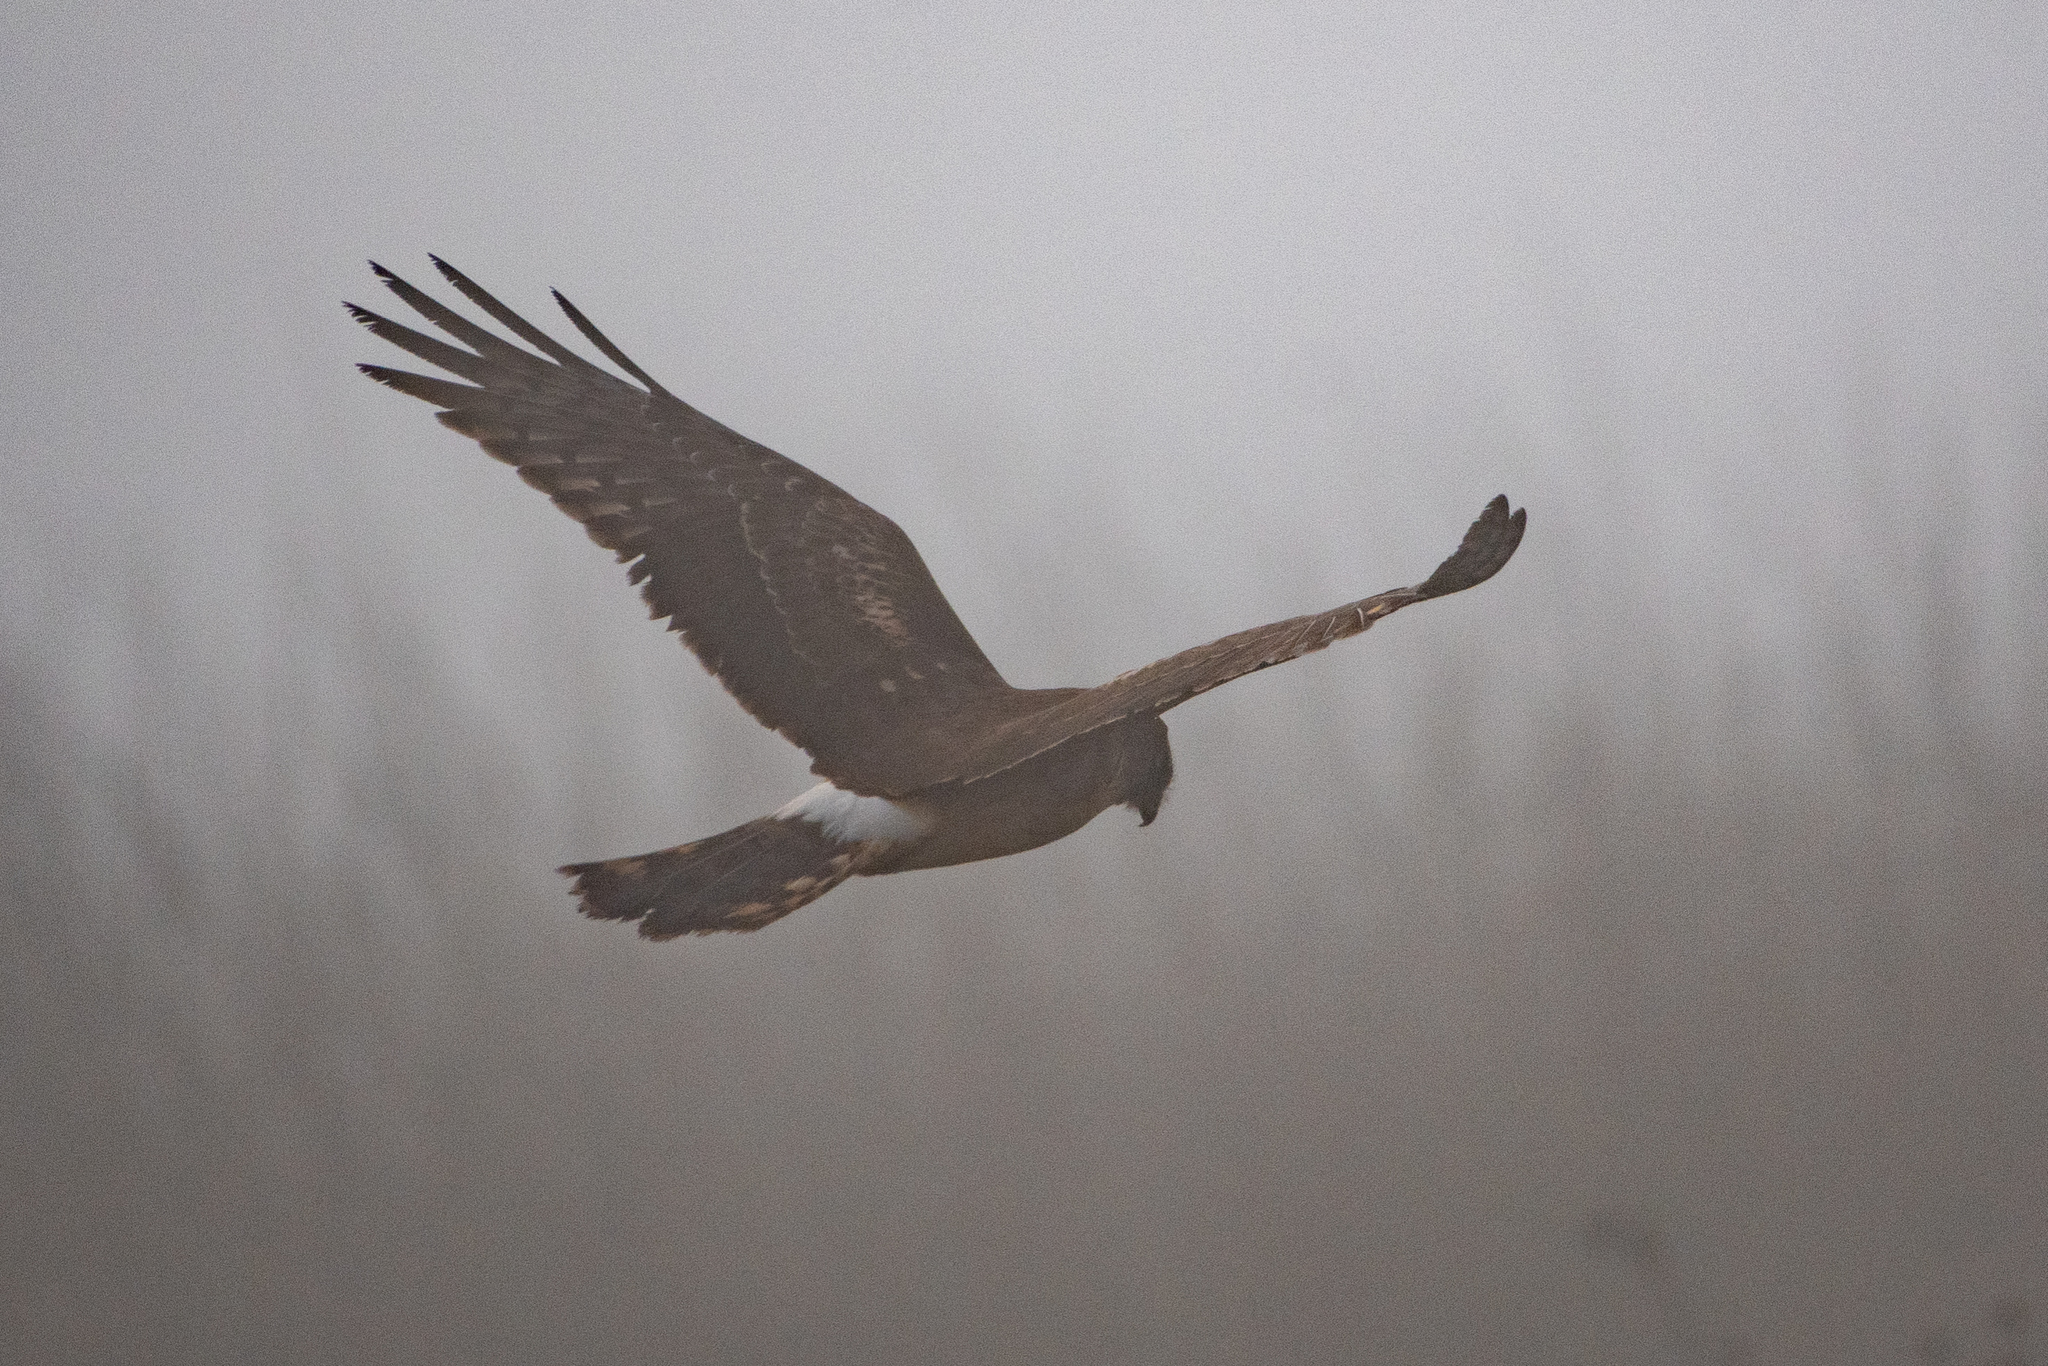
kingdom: Animalia
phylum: Chordata
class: Aves
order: Accipitriformes
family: Accipitridae
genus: Circus
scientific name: Circus cyaneus
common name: Hen harrier
